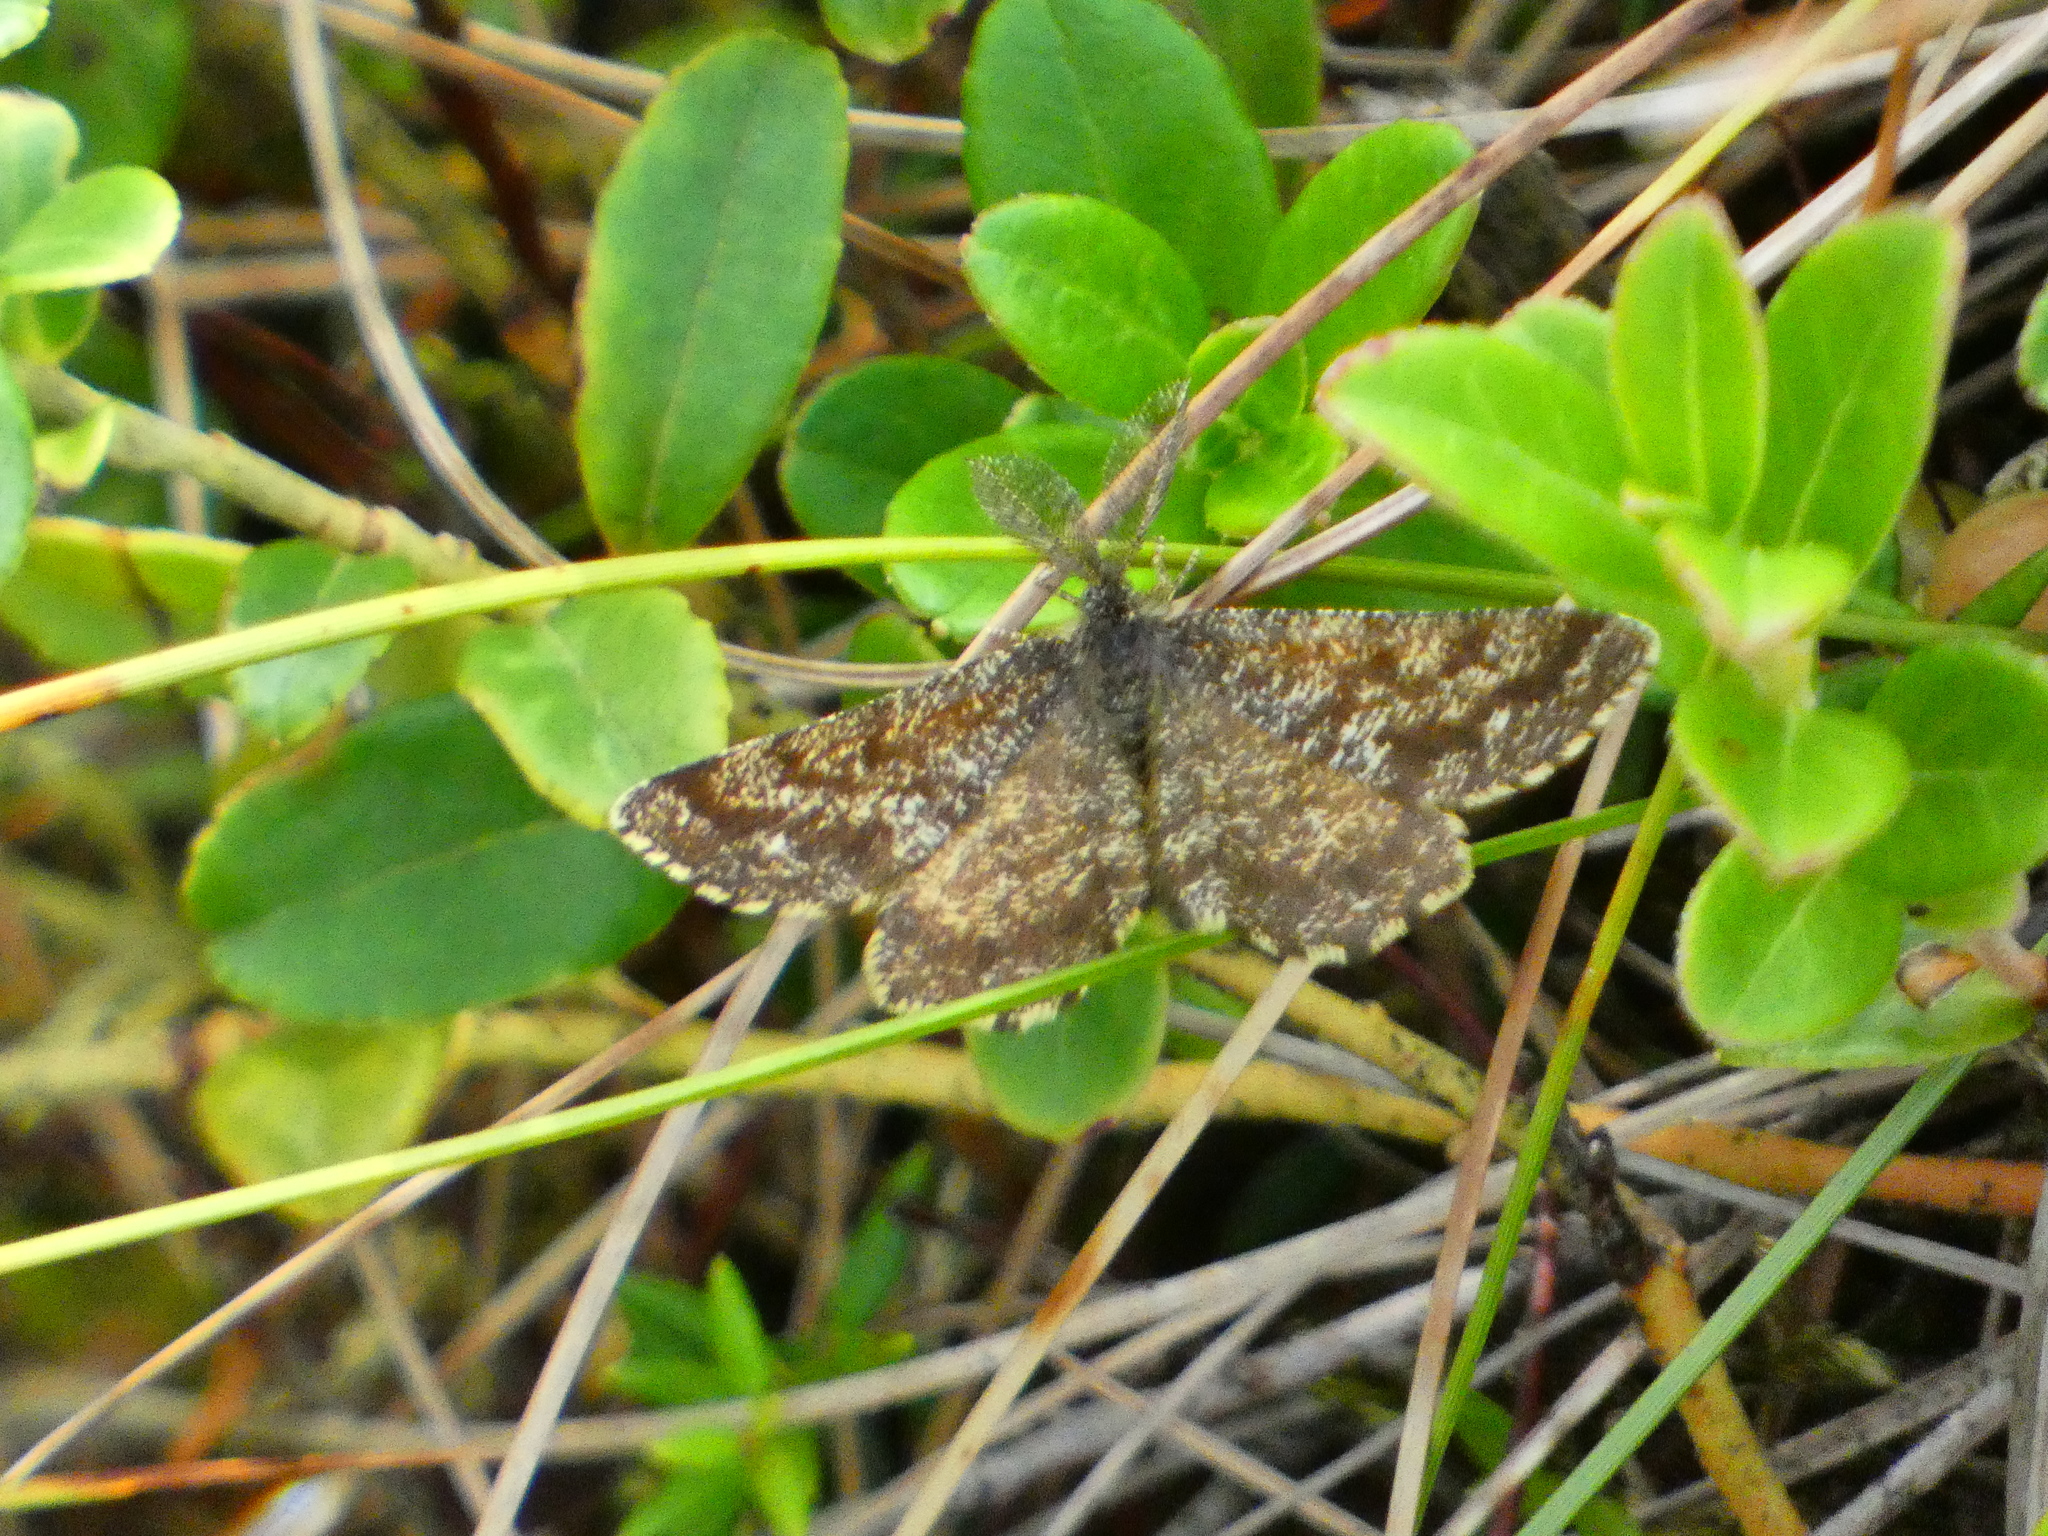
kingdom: Animalia
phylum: Arthropoda
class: Insecta
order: Lepidoptera
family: Geometridae
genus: Ematurga
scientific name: Ematurga atomaria
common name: Common heath
